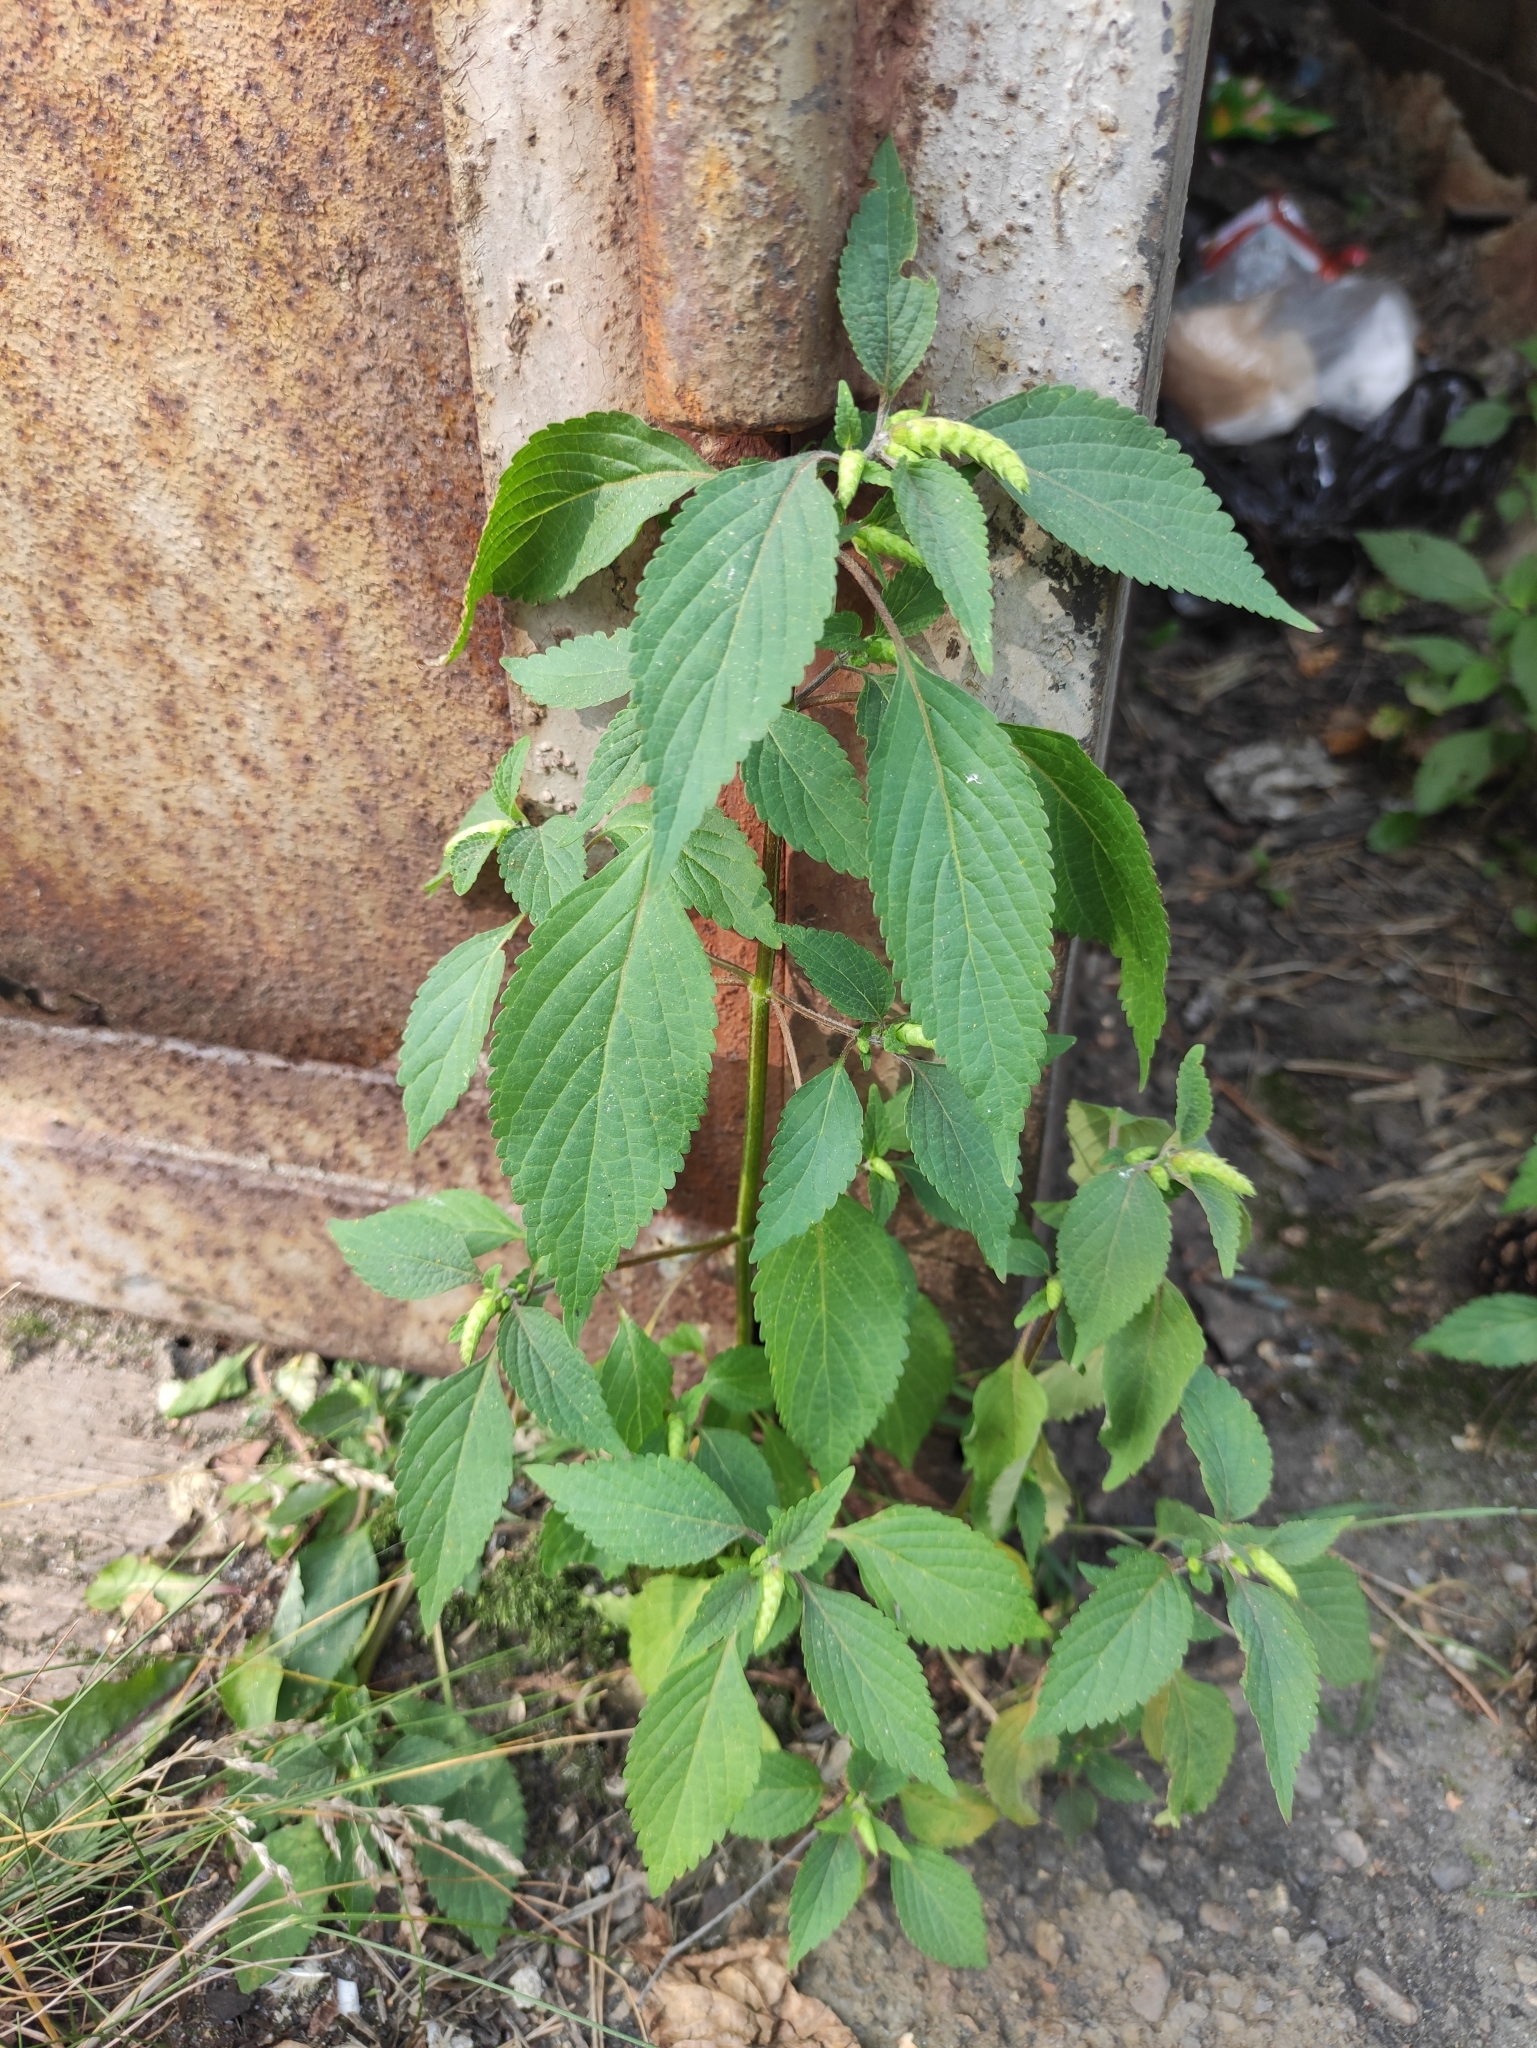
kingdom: Plantae
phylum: Tracheophyta
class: Magnoliopsida
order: Lamiales
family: Lamiaceae
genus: Elsholtzia
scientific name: Elsholtzia ciliata
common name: Ciliate elsholtzia
